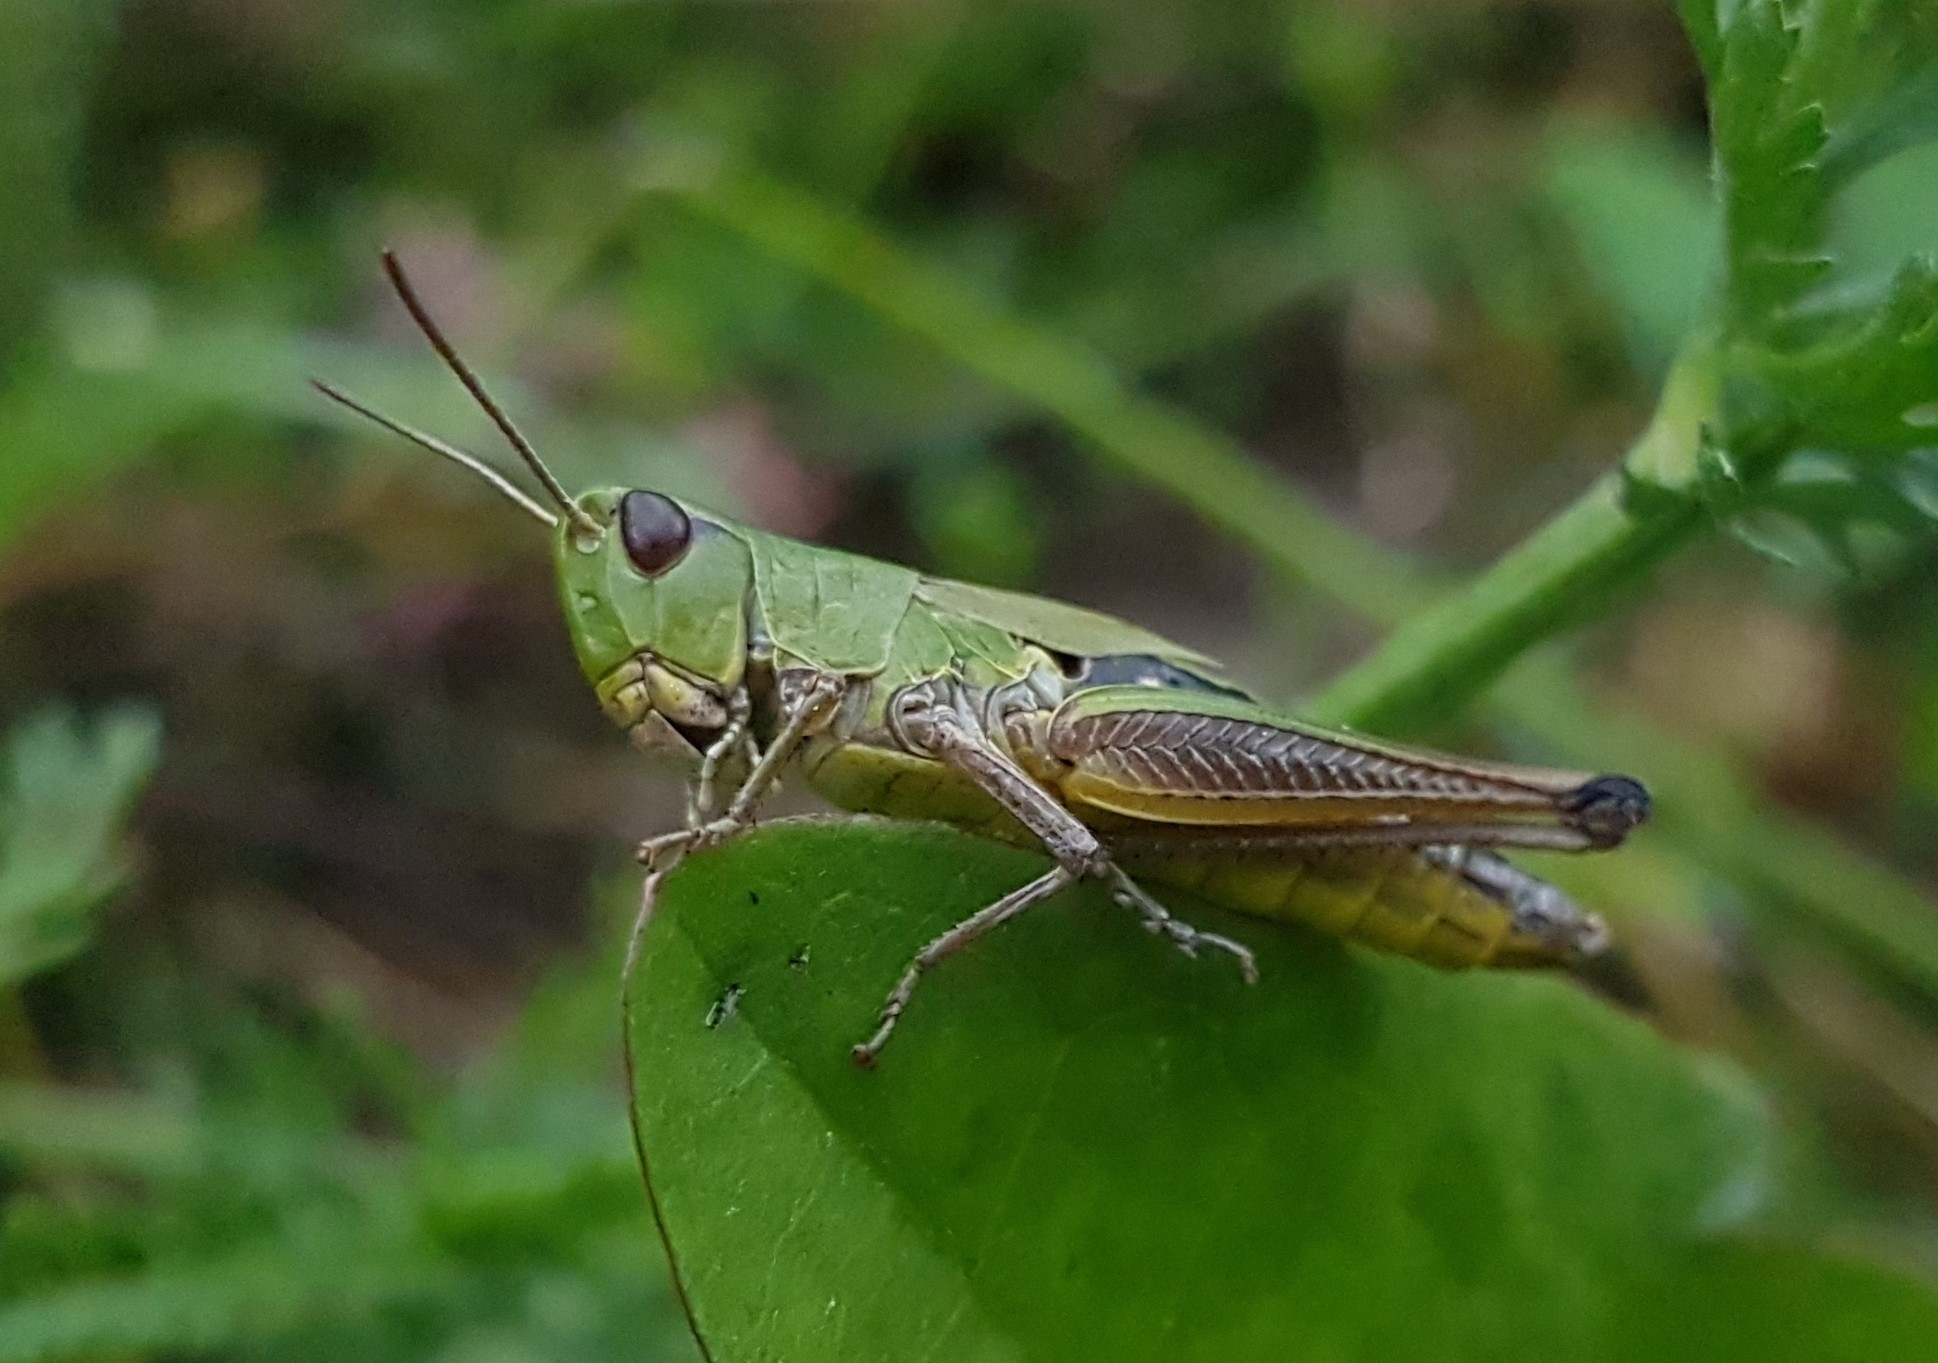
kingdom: Animalia
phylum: Arthropoda
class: Insecta
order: Orthoptera
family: Acrididae
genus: Pseudochorthippus
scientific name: Pseudochorthippus parallelus
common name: Meadow grasshopper
